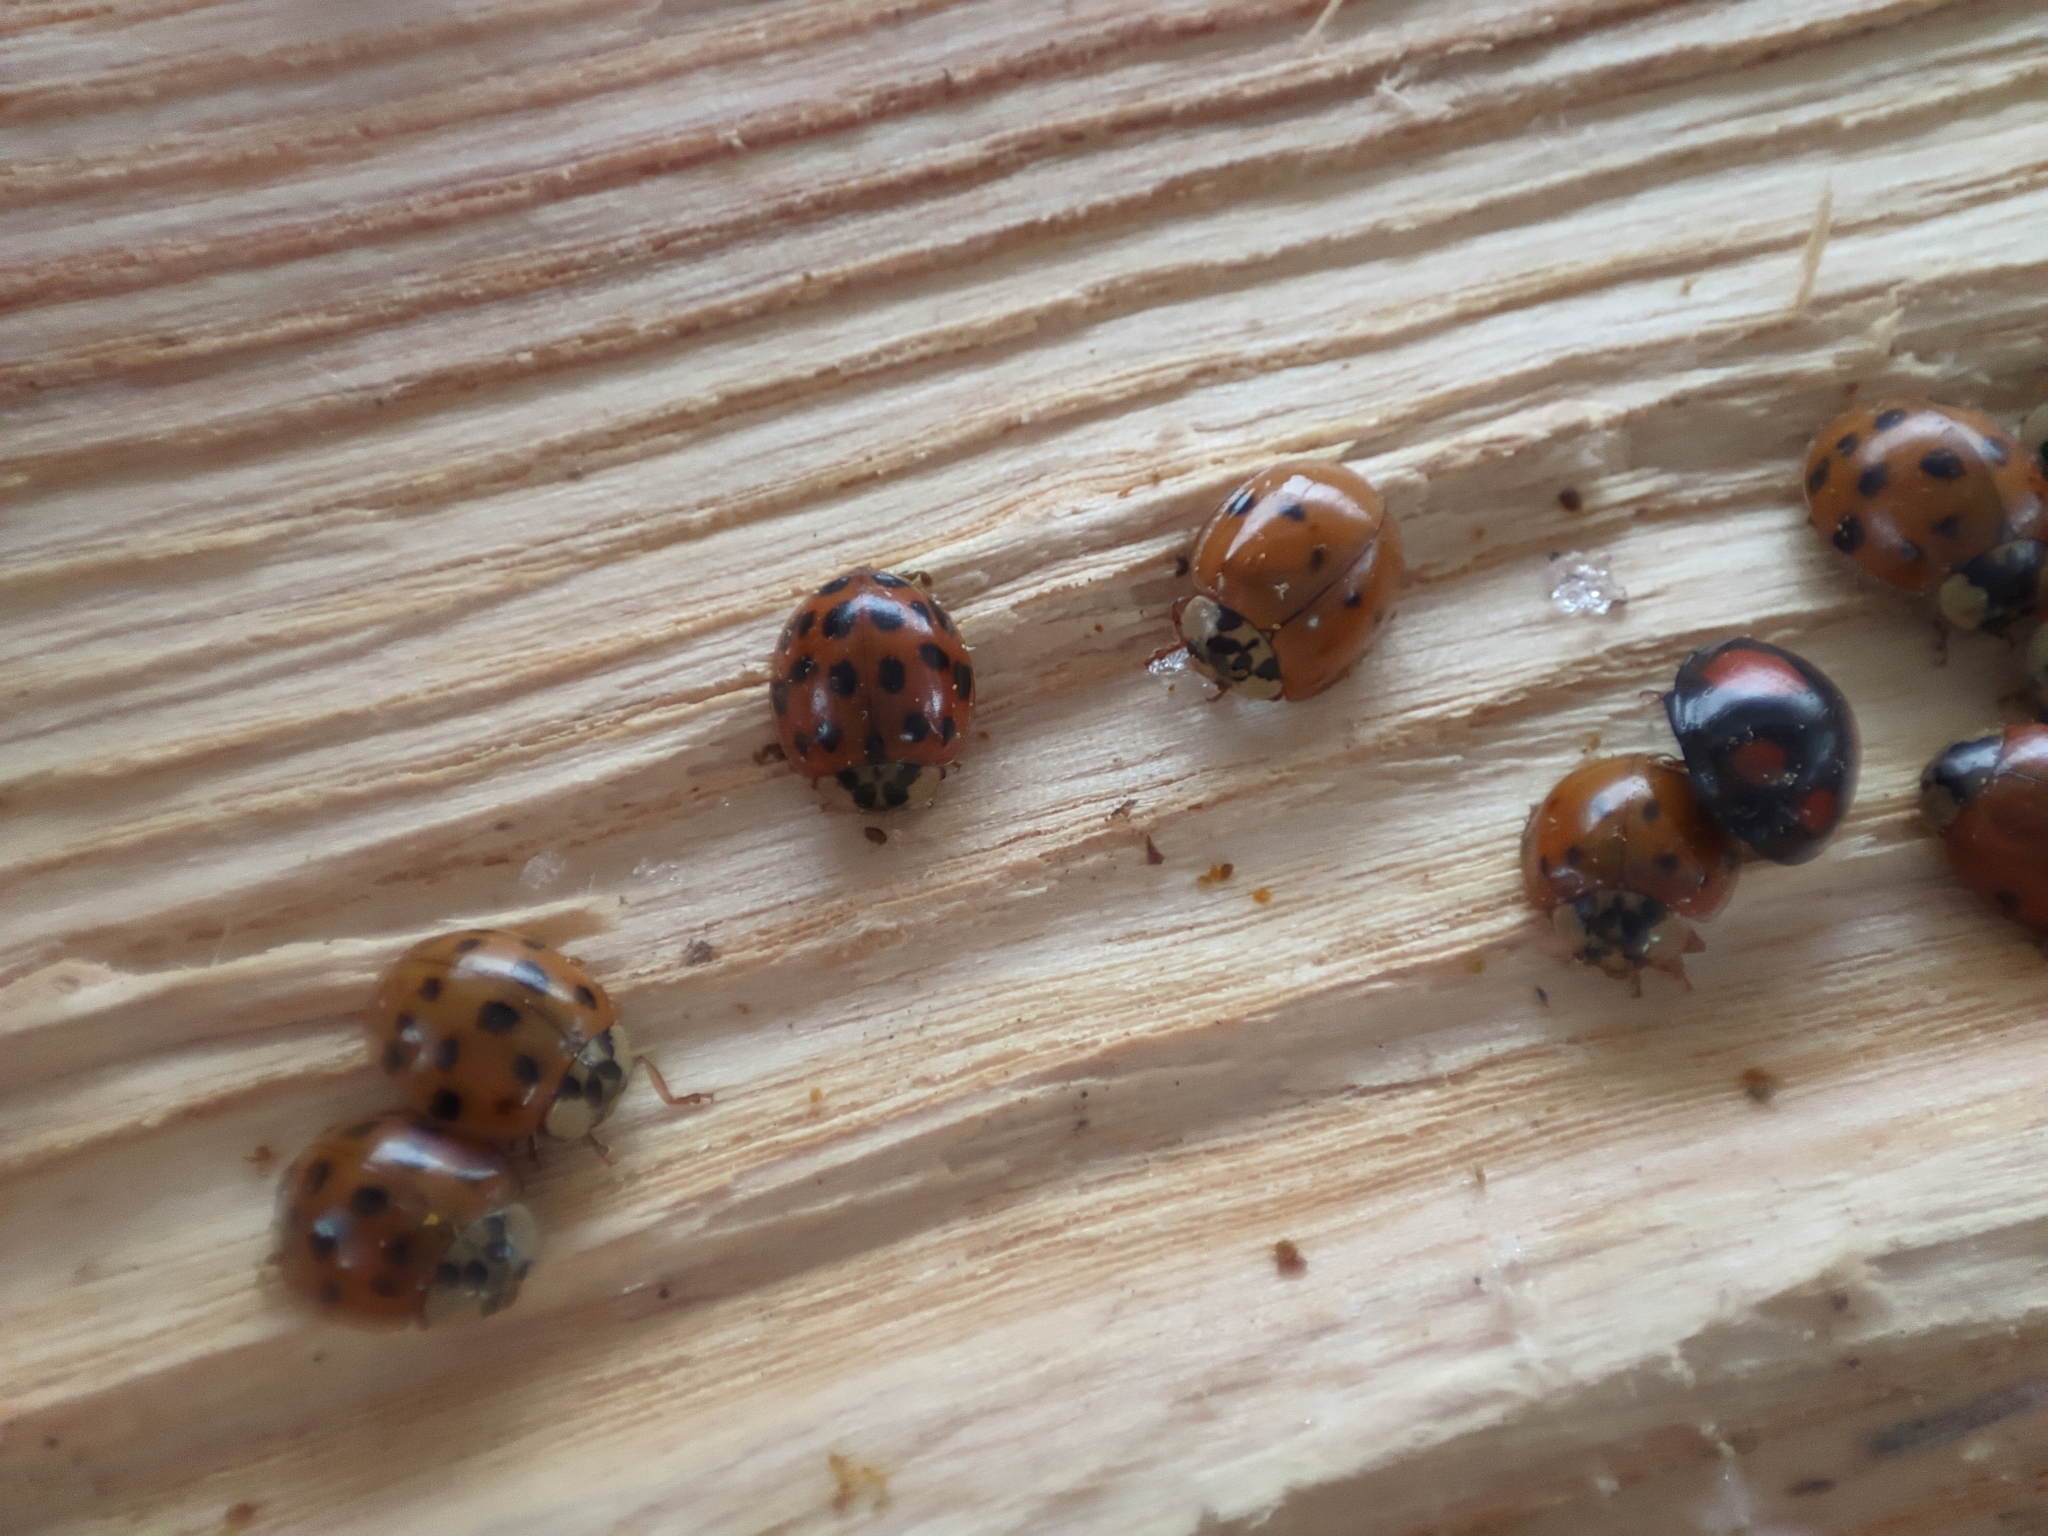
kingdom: Animalia
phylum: Arthropoda
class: Insecta
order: Coleoptera
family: Coccinellidae
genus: Harmonia
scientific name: Harmonia axyridis
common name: Harlequin ladybird
